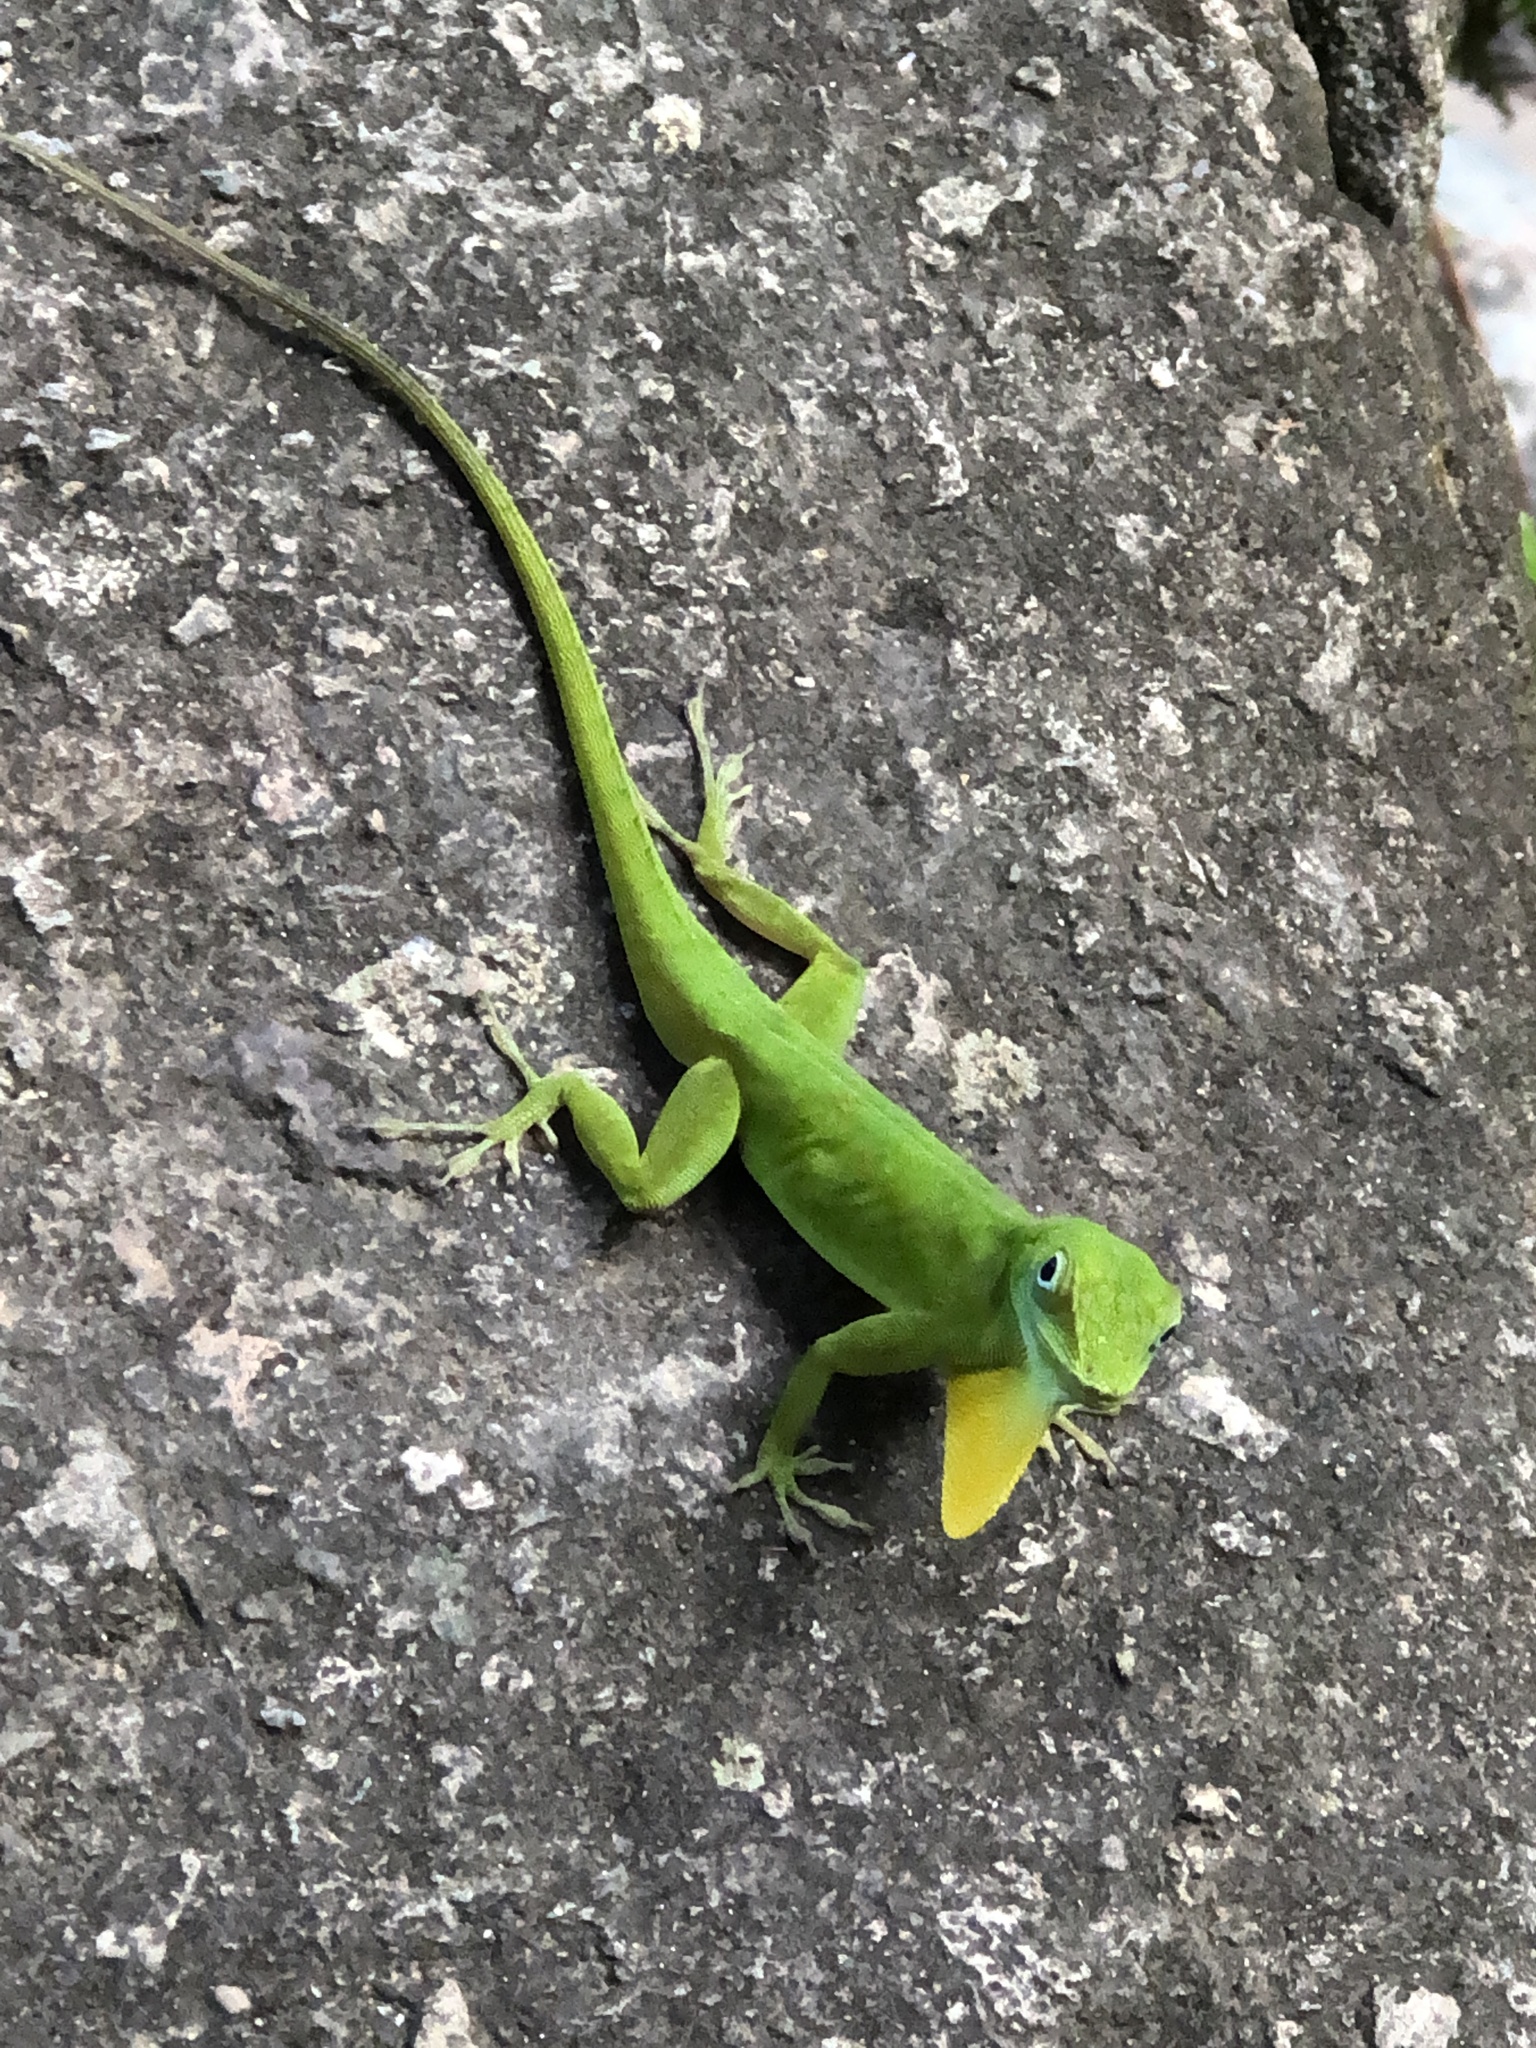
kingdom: Animalia
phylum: Chordata
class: Squamata
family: Dactyloidae
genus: Anolis
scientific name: Anolis evermanni
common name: Emerald anole
